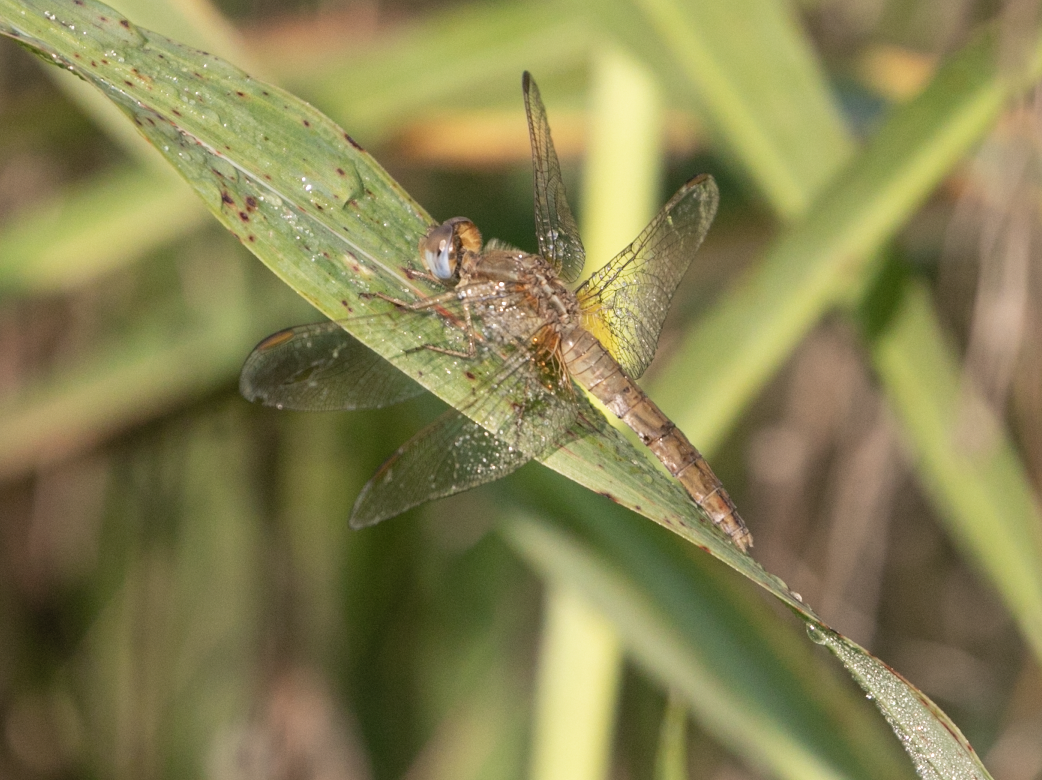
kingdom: Animalia
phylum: Arthropoda
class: Insecta
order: Odonata
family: Libellulidae
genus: Crocothemis
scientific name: Crocothemis erythraea
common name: Scarlet dragonfly
